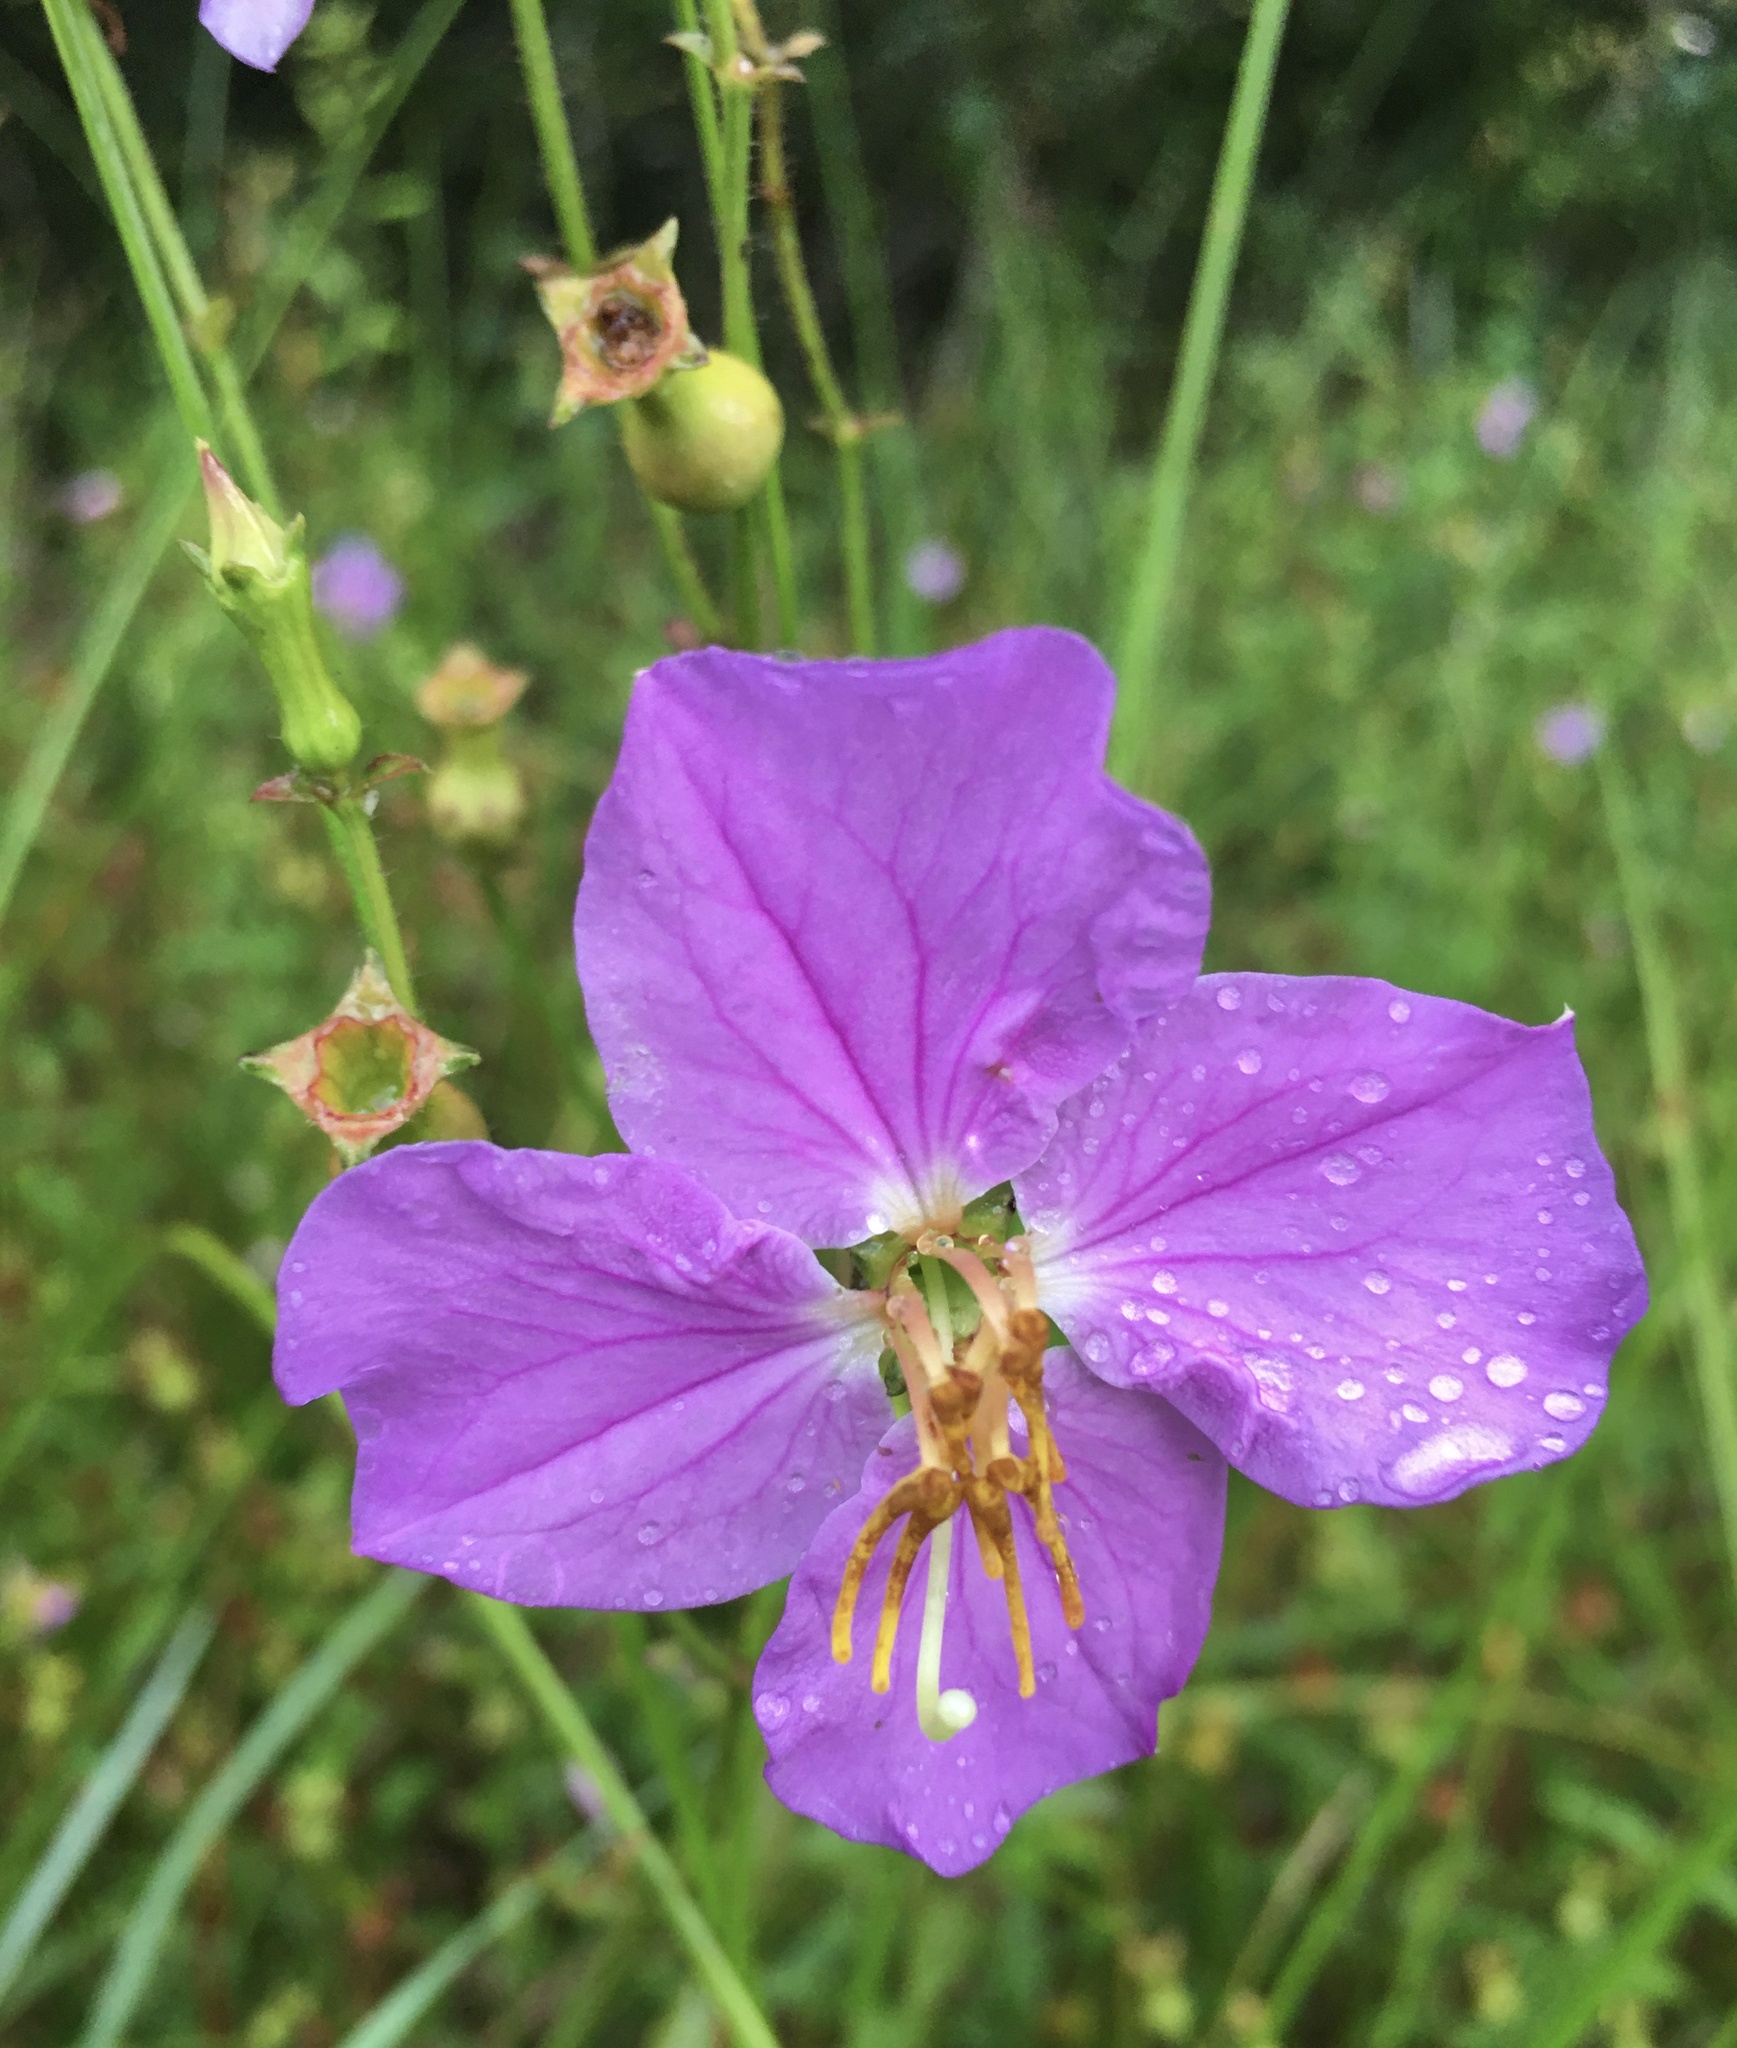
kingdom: Plantae
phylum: Tracheophyta
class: Magnoliopsida
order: Myrtales
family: Melastomataceae
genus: Rhexia
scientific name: Rhexia nashii
